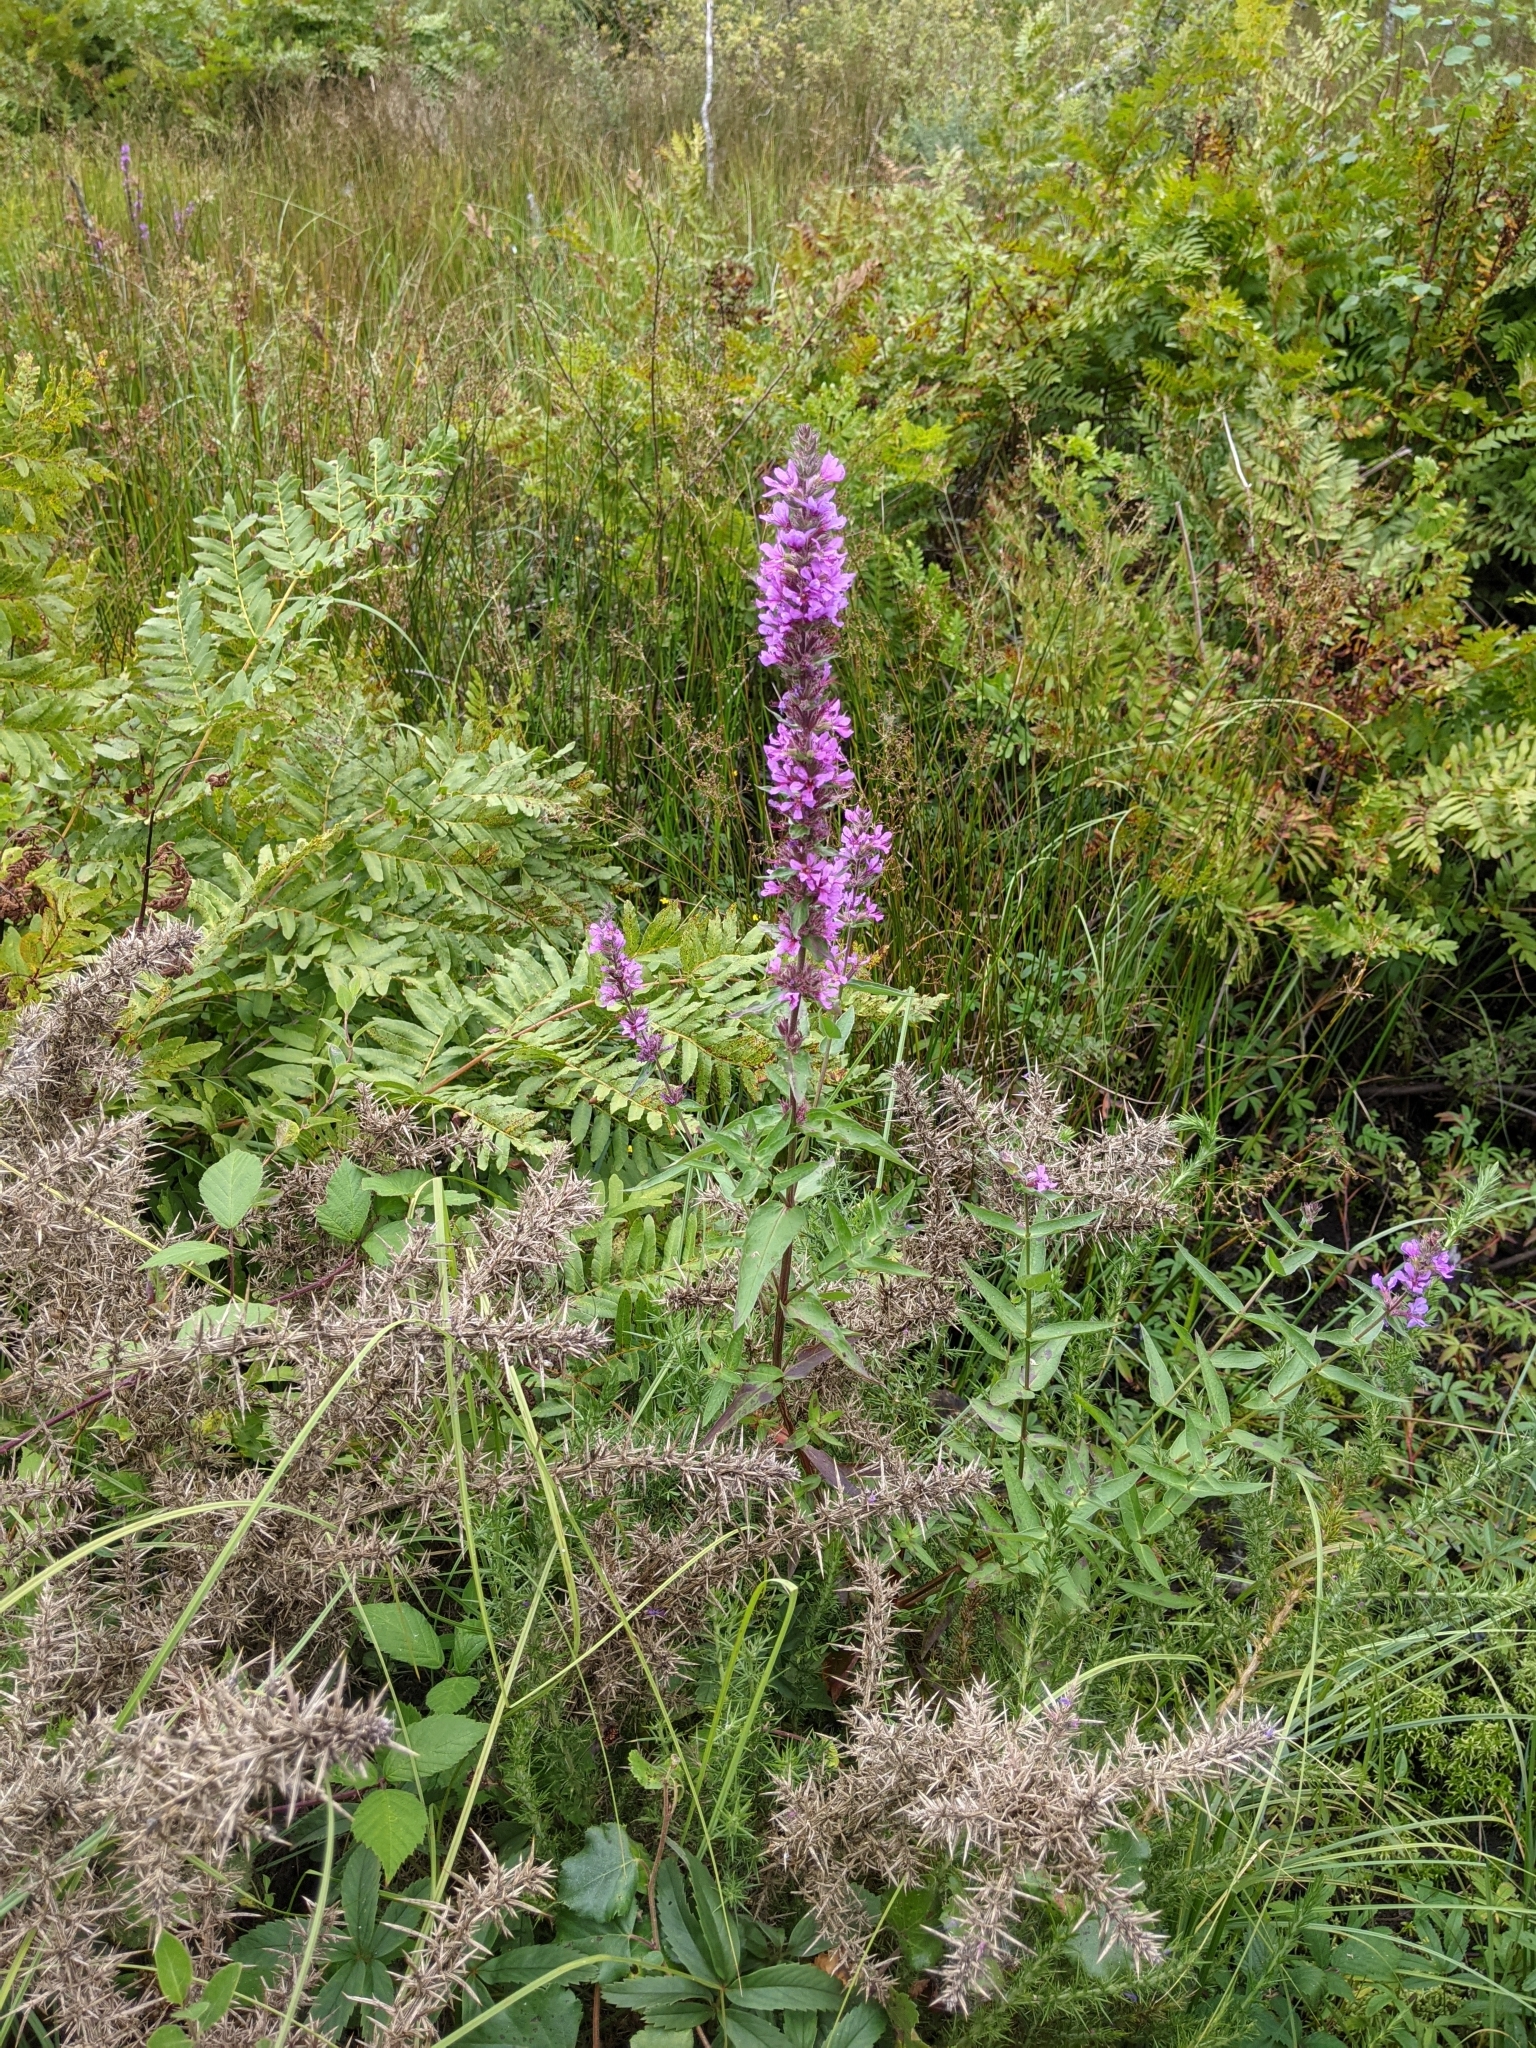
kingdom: Plantae
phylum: Tracheophyta
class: Magnoliopsida
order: Myrtales
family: Lythraceae
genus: Lythrum
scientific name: Lythrum salicaria
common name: Purple loosestrife
